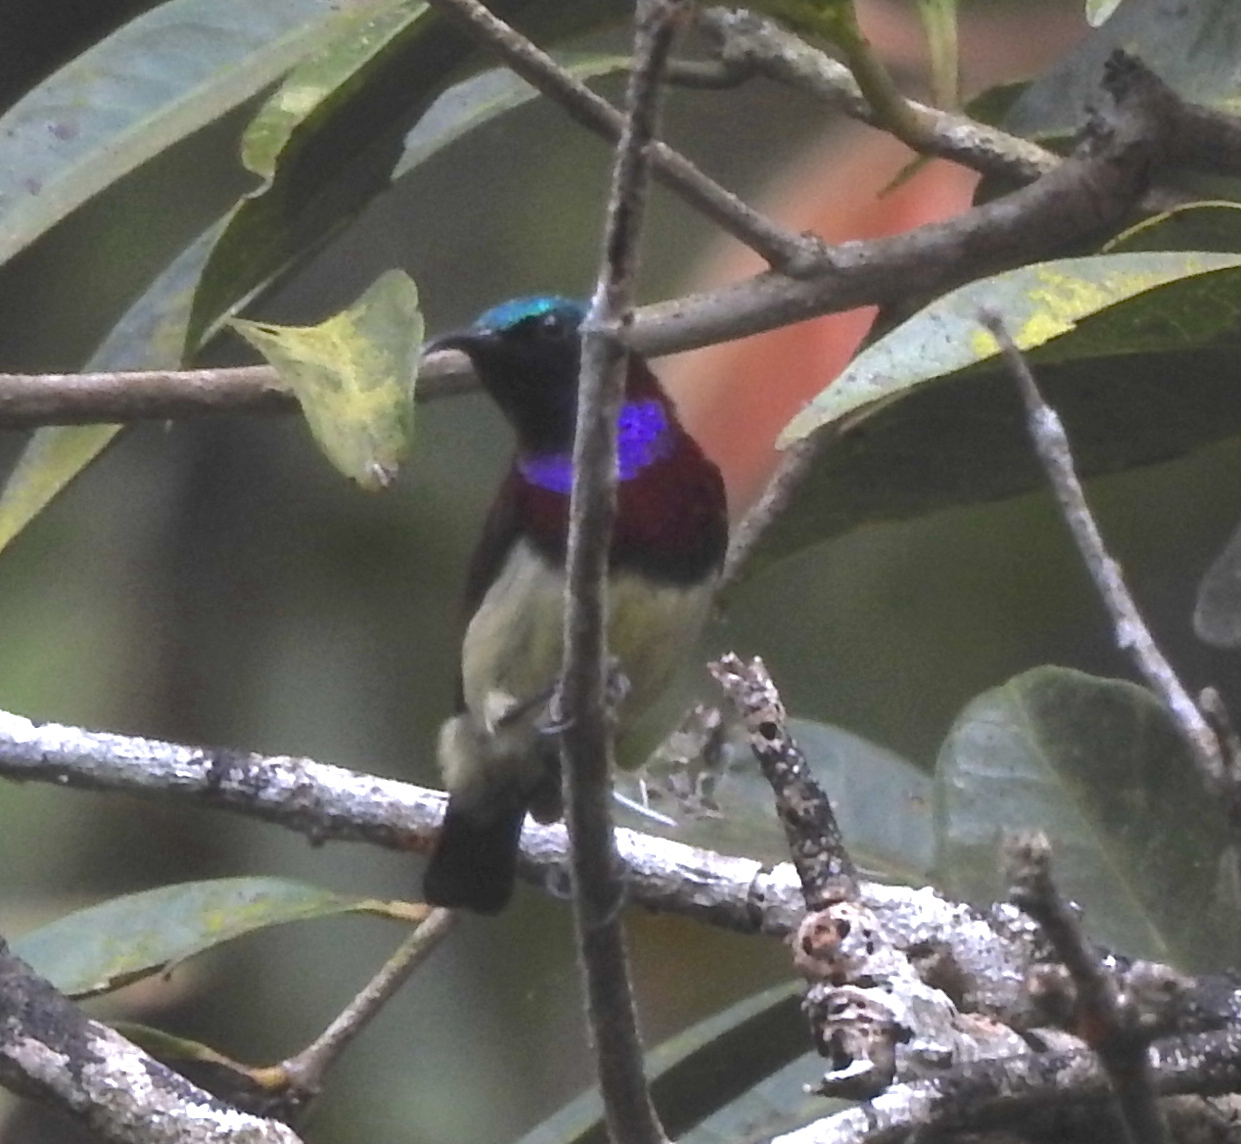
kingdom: Animalia
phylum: Chordata
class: Aves
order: Passeriformes
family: Nectariniidae
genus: Leptocoma
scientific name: Leptocoma minima
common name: Crimson-backed sunbird
